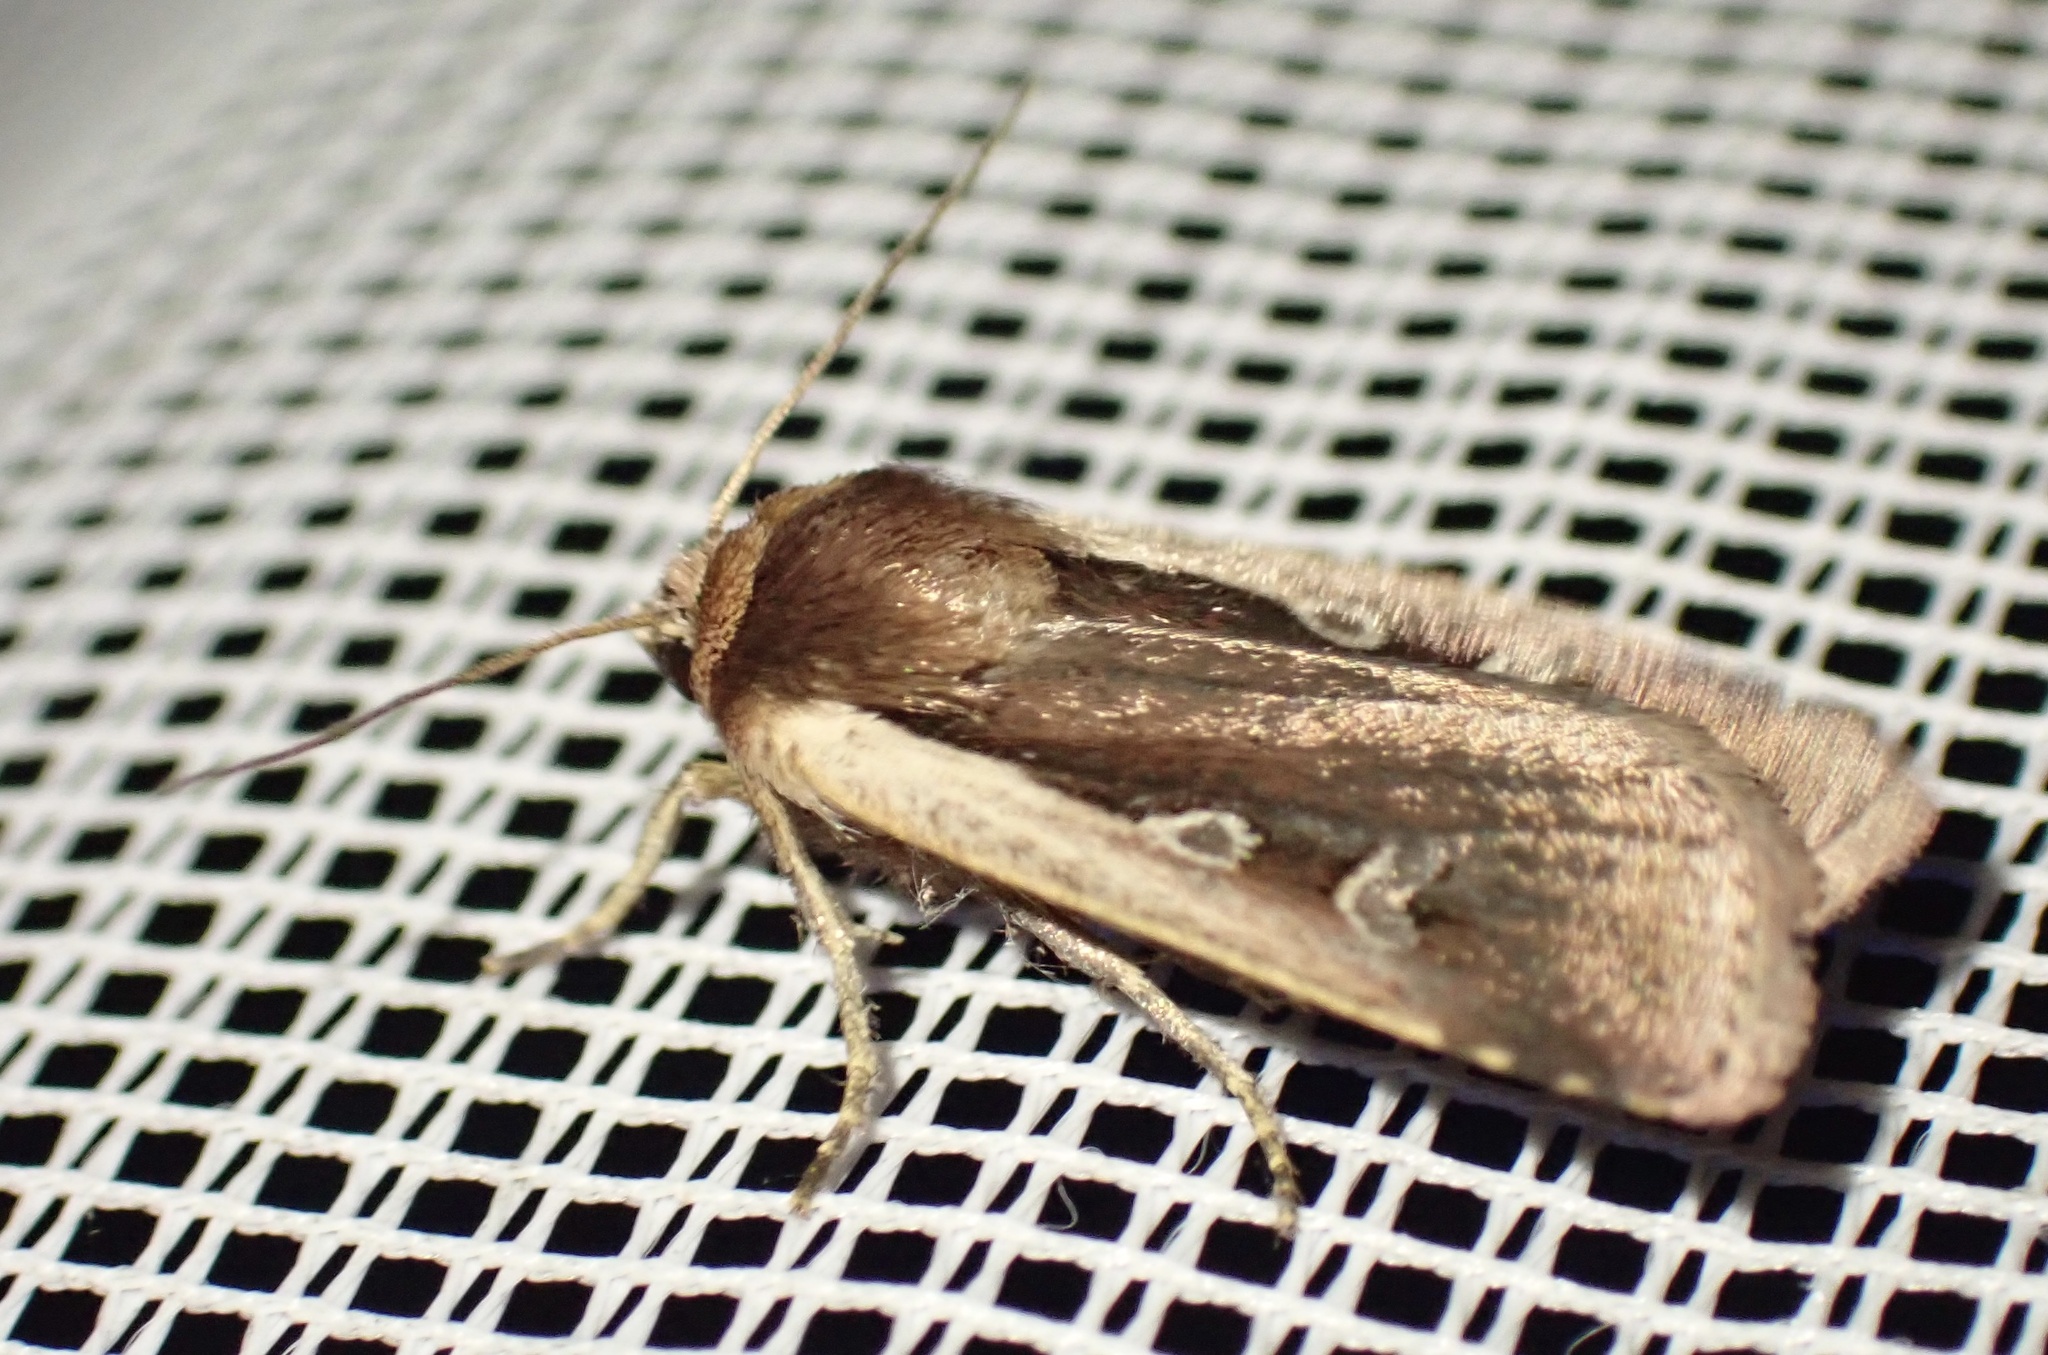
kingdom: Animalia
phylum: Arthropoda
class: Insecta
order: Lepidoptera
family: Noctuidae
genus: Ochropleura
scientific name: Ochropleura plecta
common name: Flame shoulder
